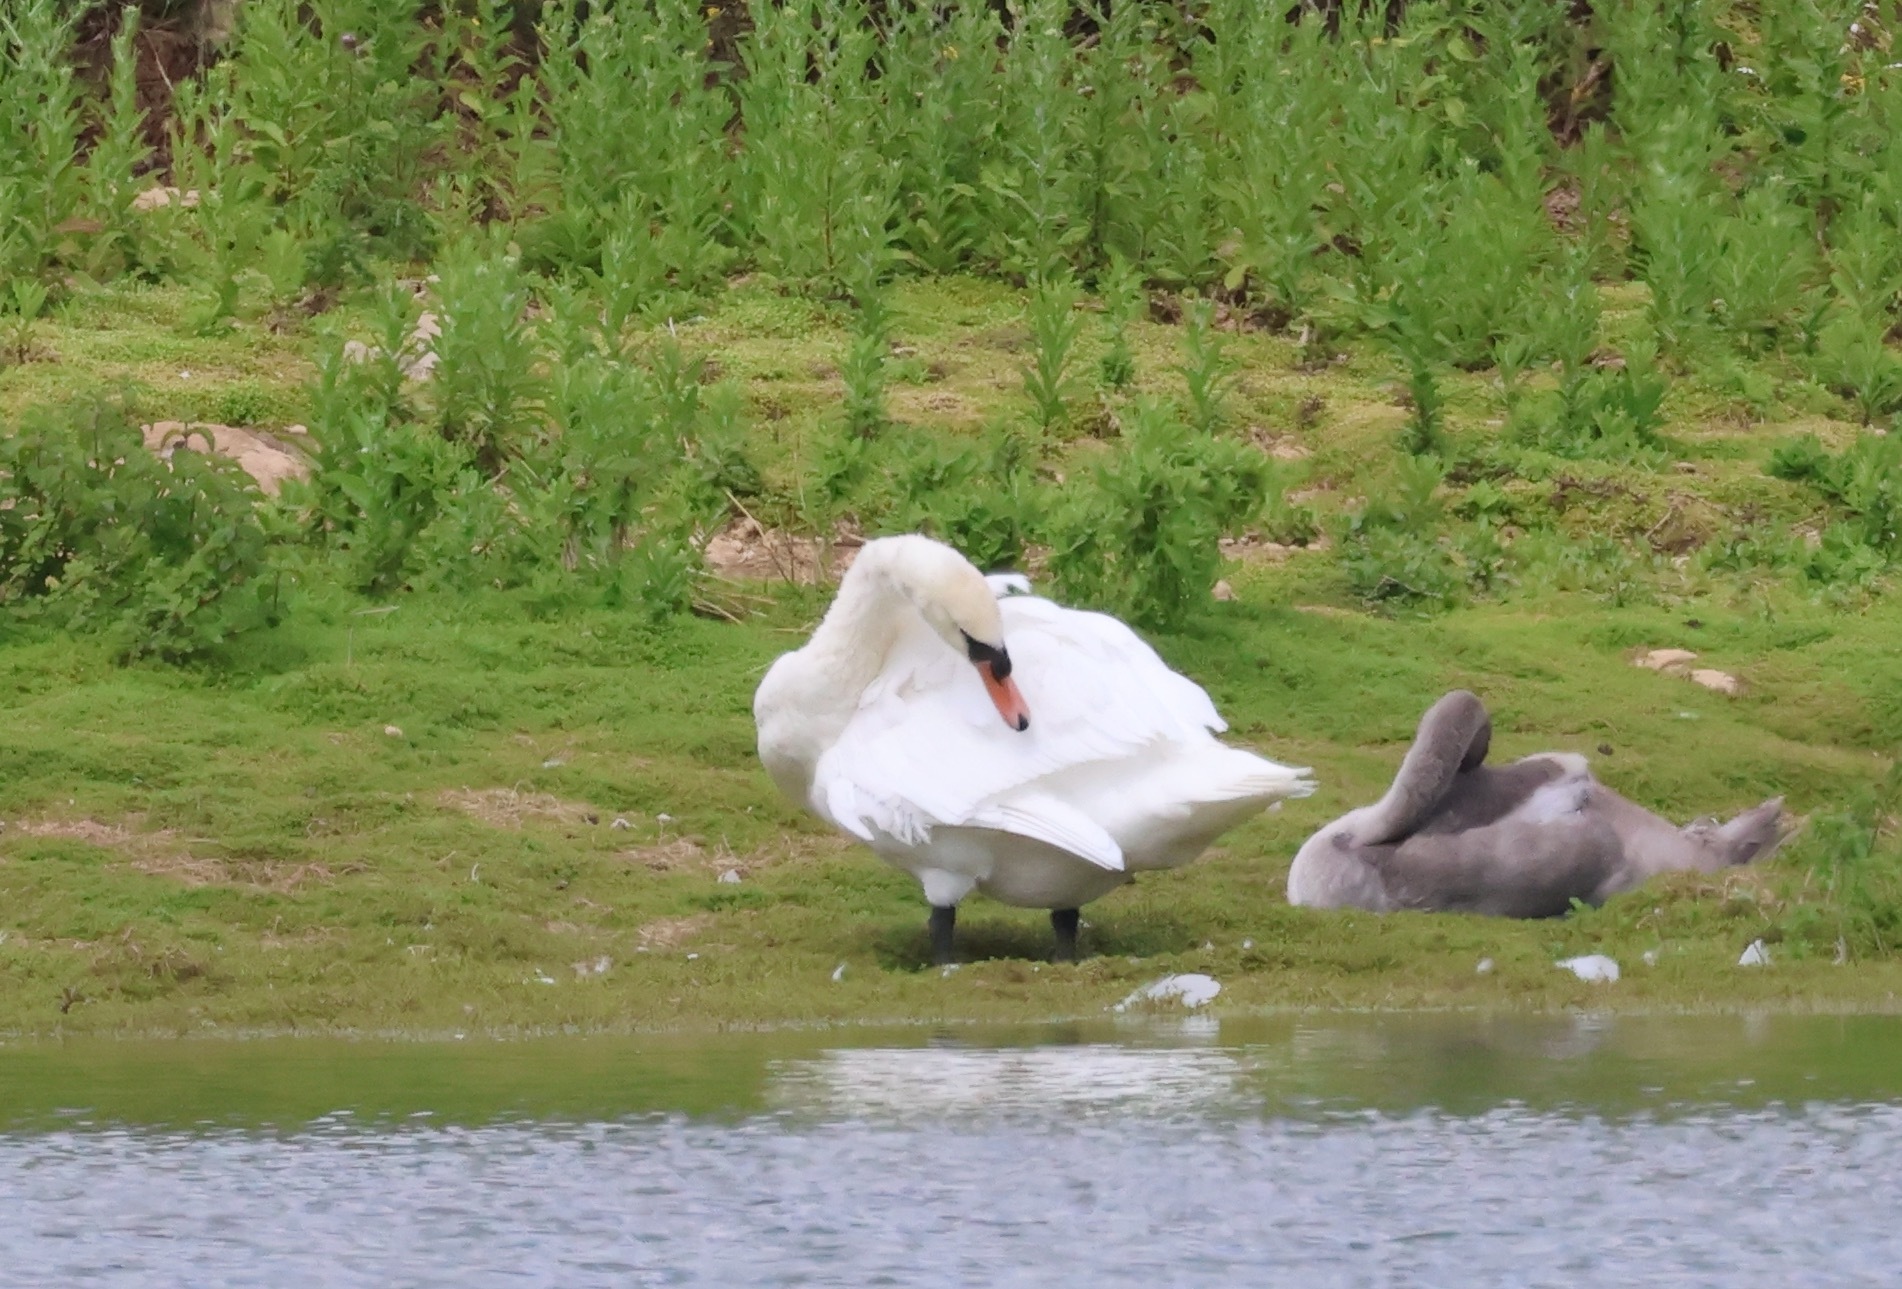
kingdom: Animalia
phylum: Chordata
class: Aves
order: Anseriformes
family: Anatidae
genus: Cygnus
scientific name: Cygnus olor
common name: Mute swan
